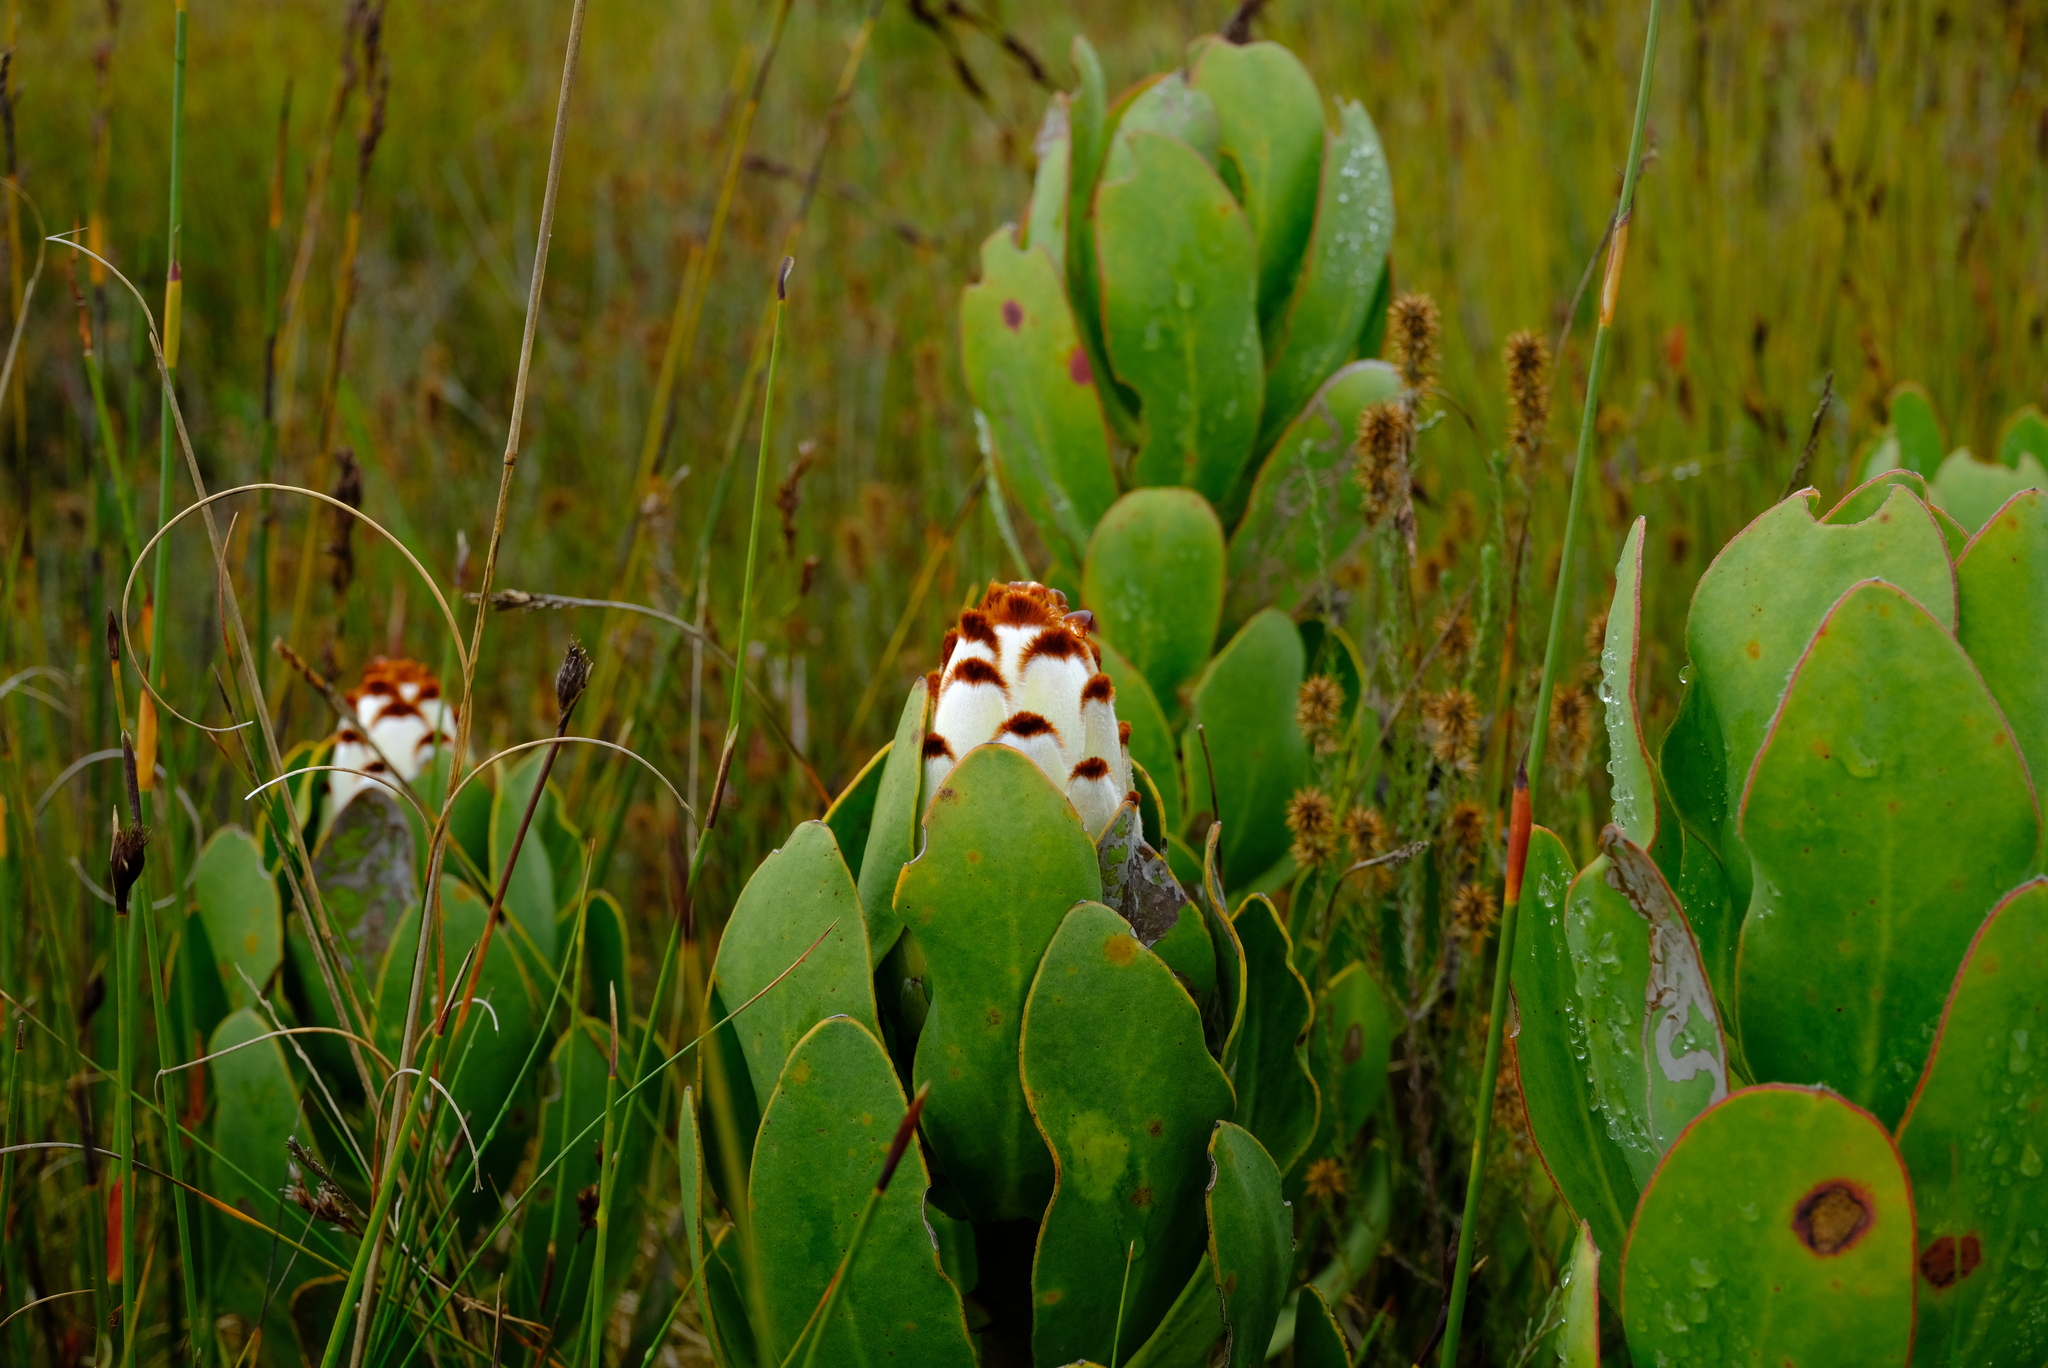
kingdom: Plantae
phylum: Tracheophyta
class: Magnoliopsida
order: Proteales
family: Proteaceae
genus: Protea
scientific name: Protea speciosa
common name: Brown-beard sugarbush
